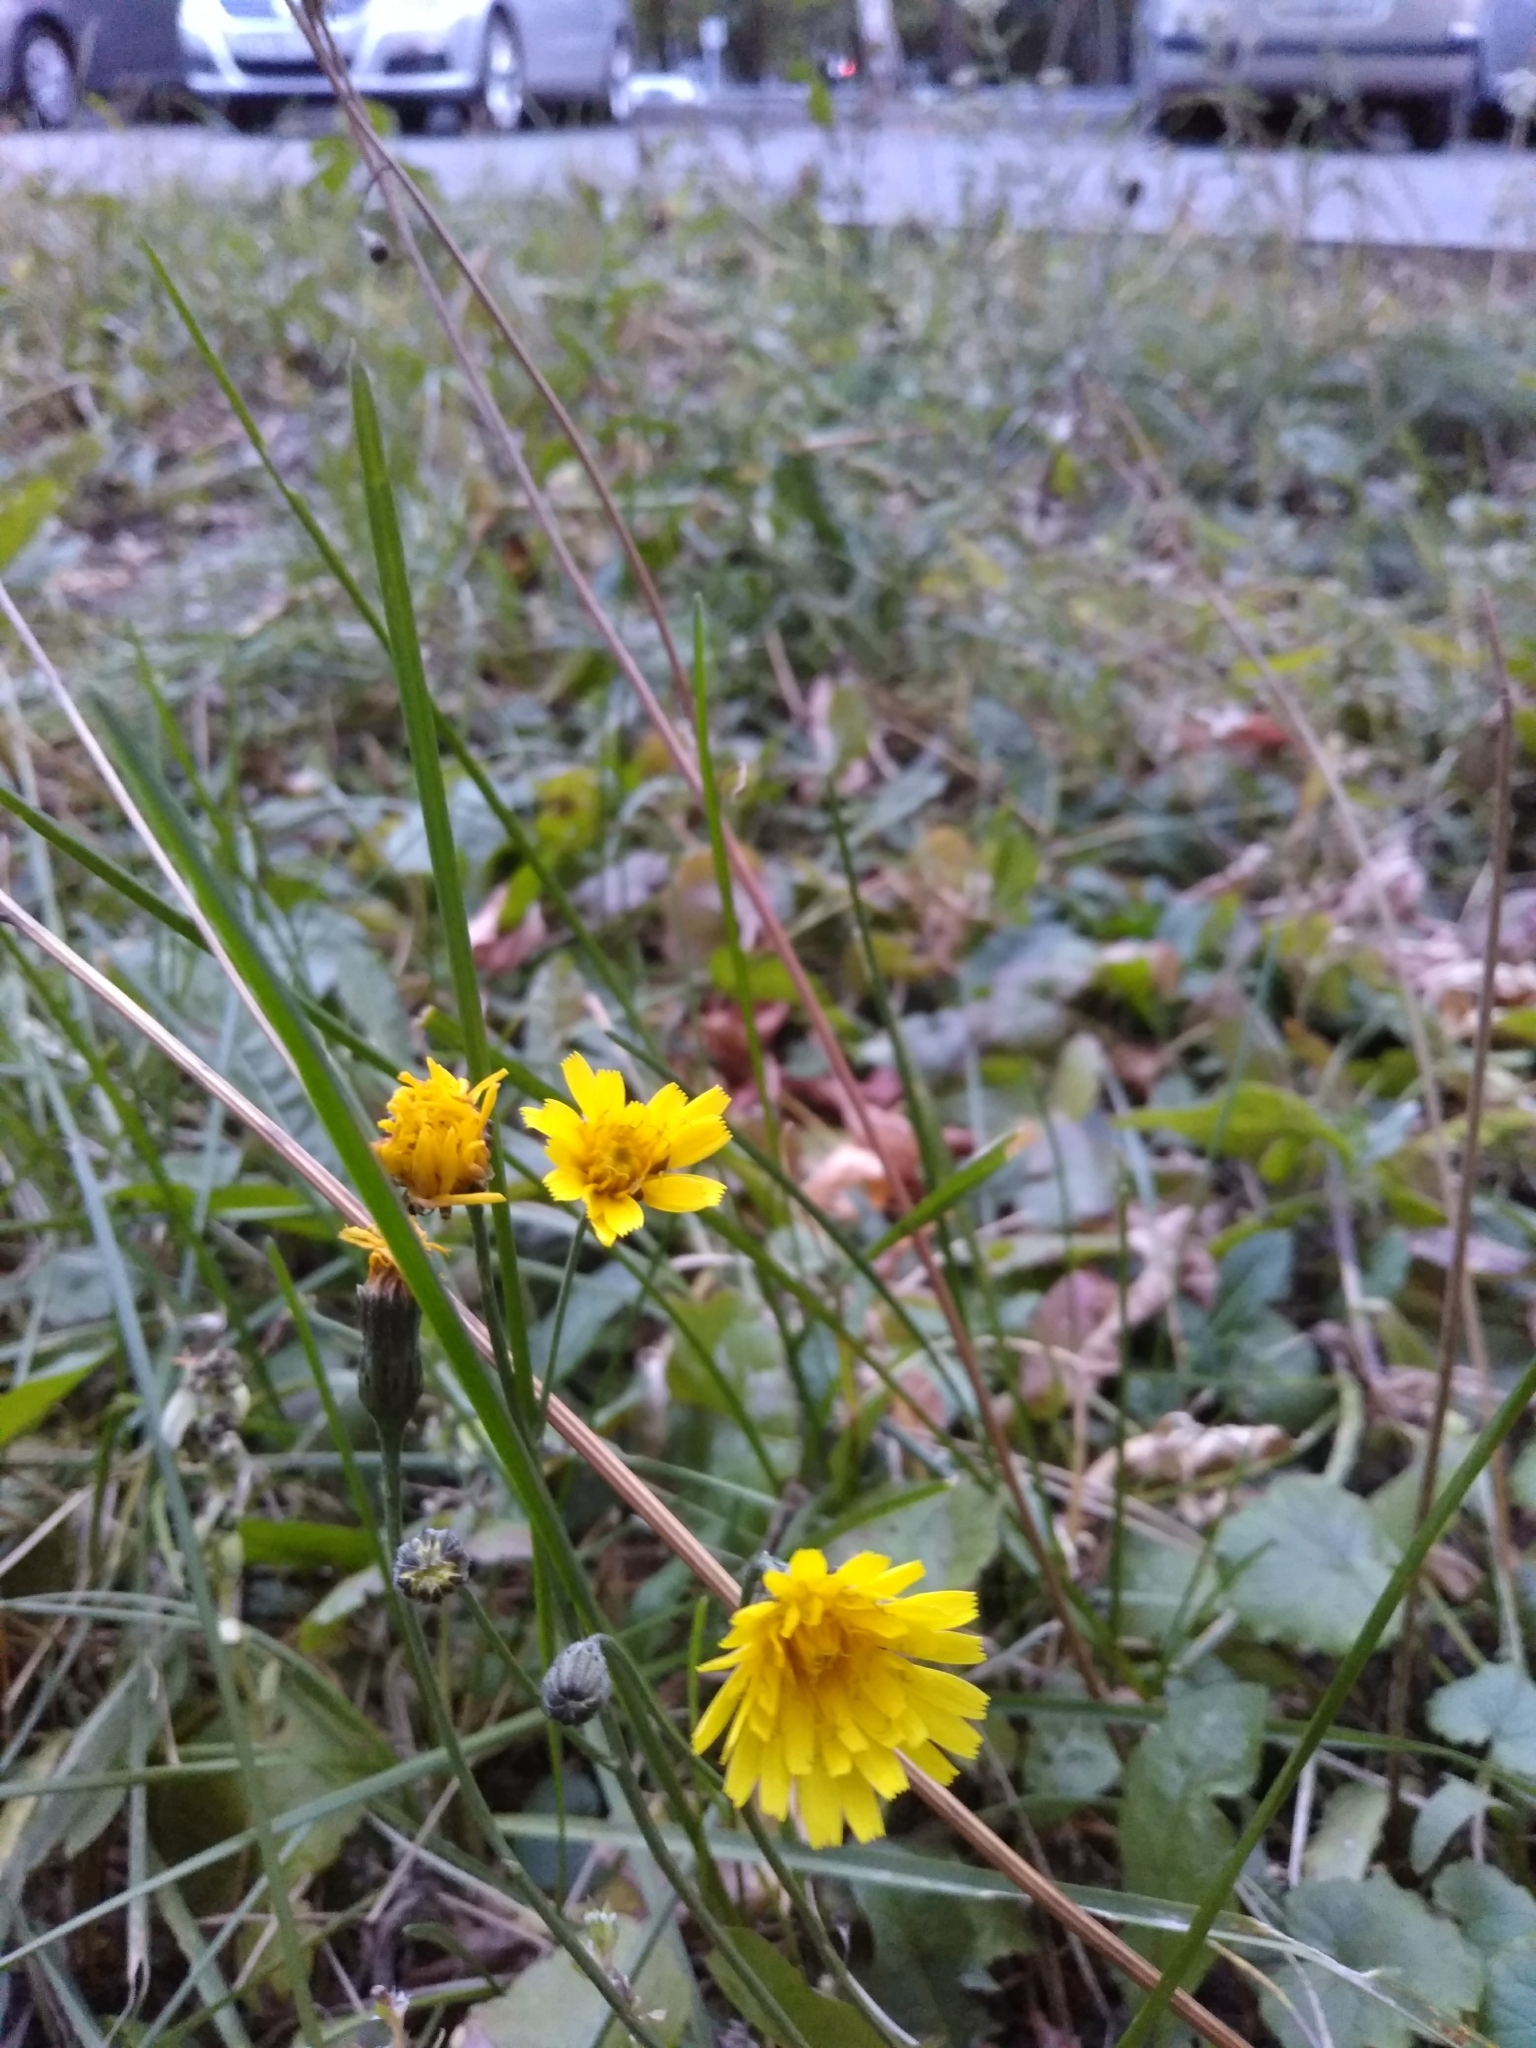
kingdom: Plantae
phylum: Tracheophyta
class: Magnoliopsida
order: Asterales
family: Asteraceae
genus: Scorzoneroides
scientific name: Scorzoneroides autumnalis
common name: Autumn hawkbit
